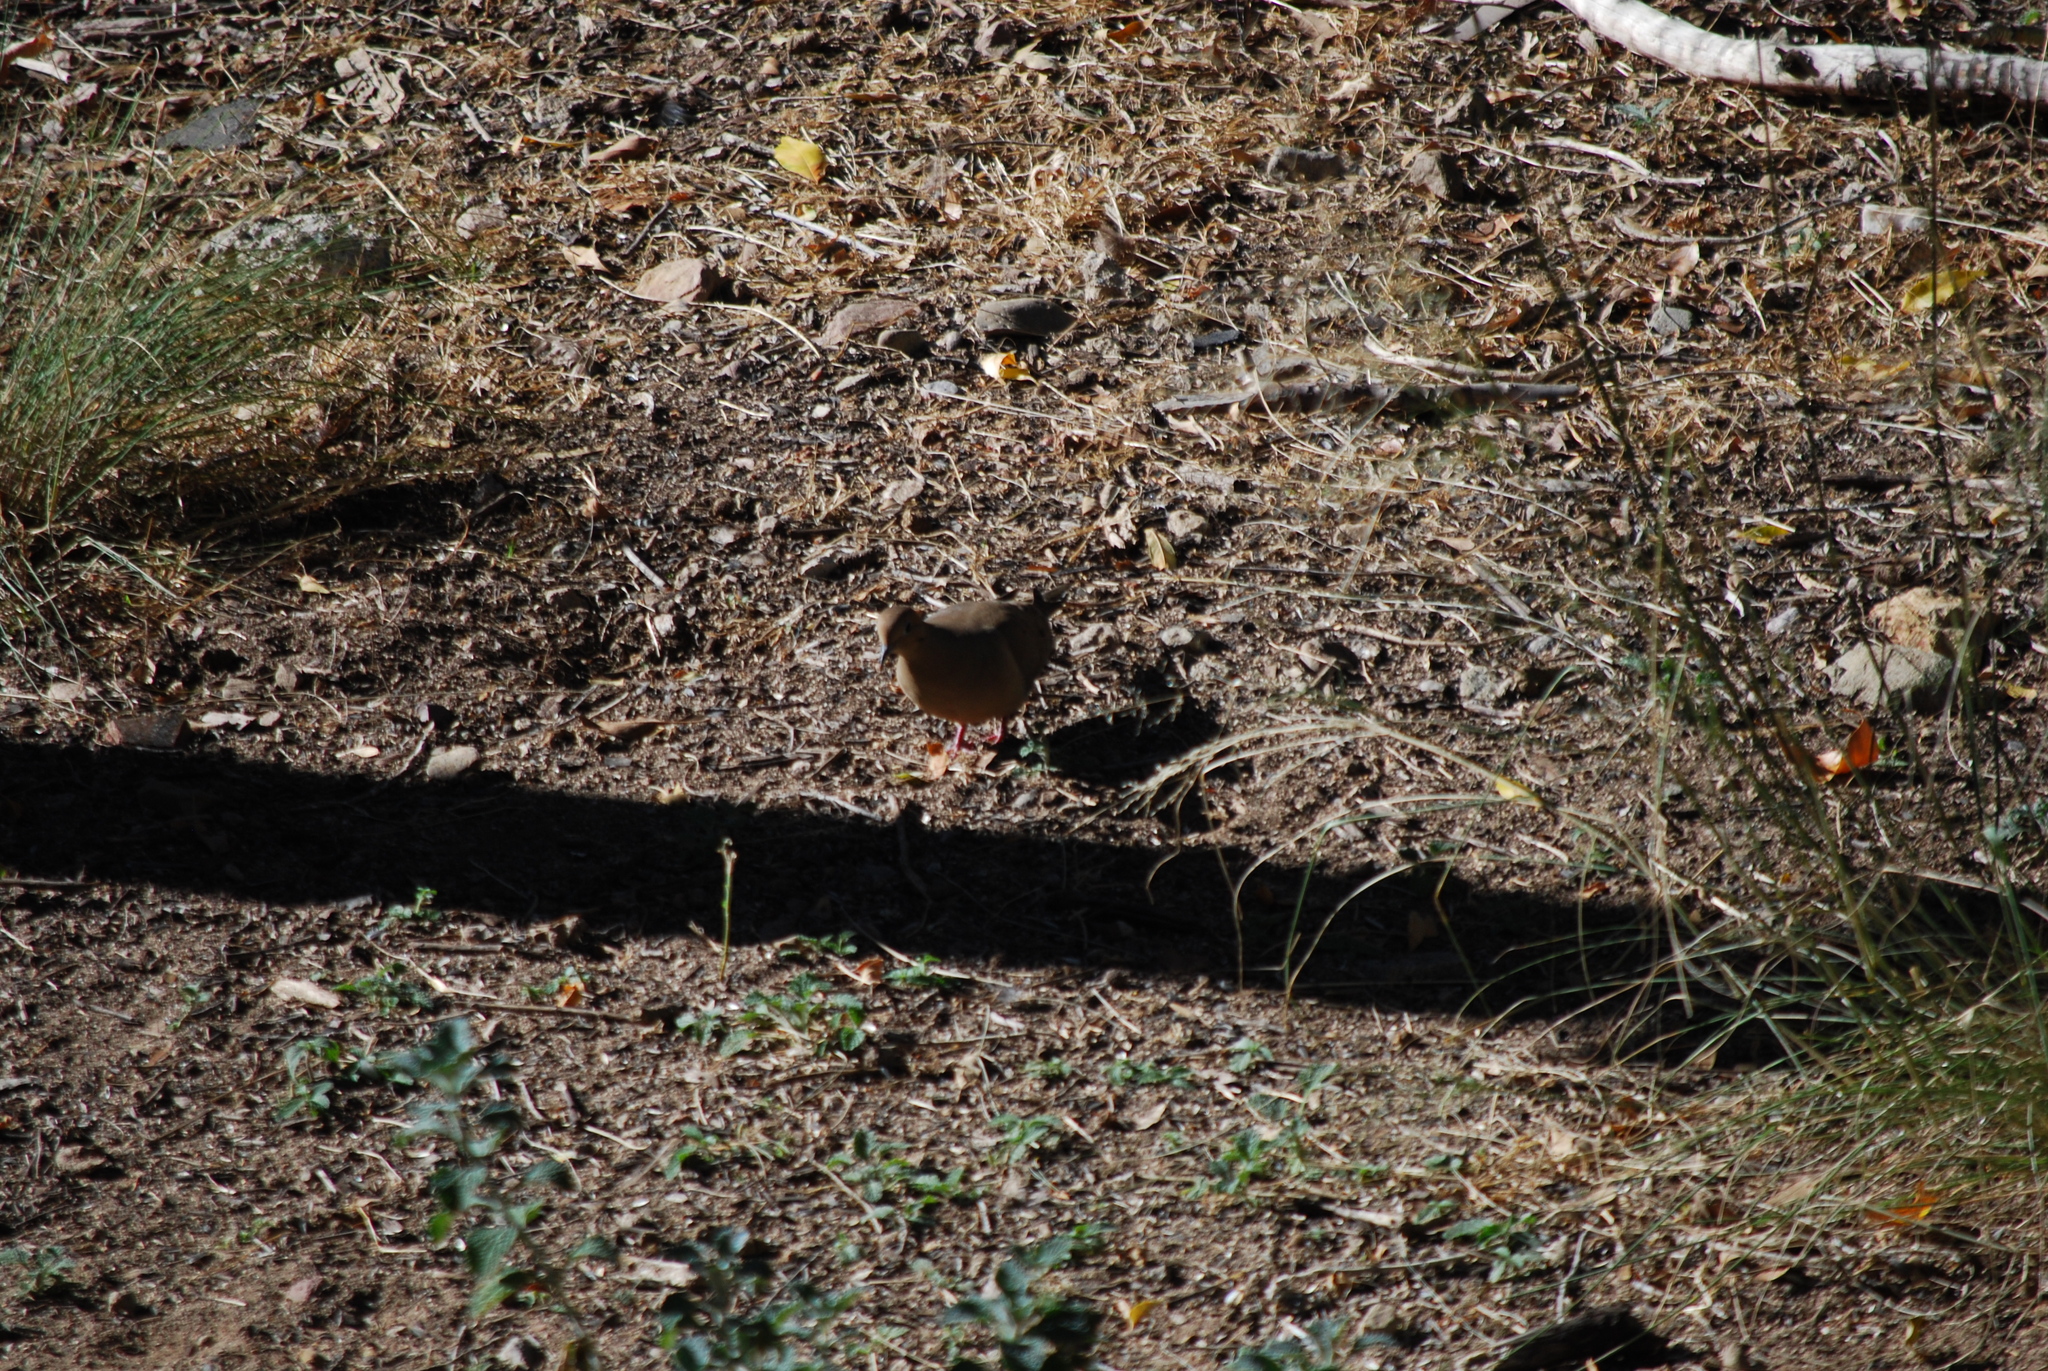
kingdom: Animalia
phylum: Chordata
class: Aves
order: Columbiformes
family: Columbidae
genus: Zenaida
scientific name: Zenaida macroura
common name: Mourning dove
